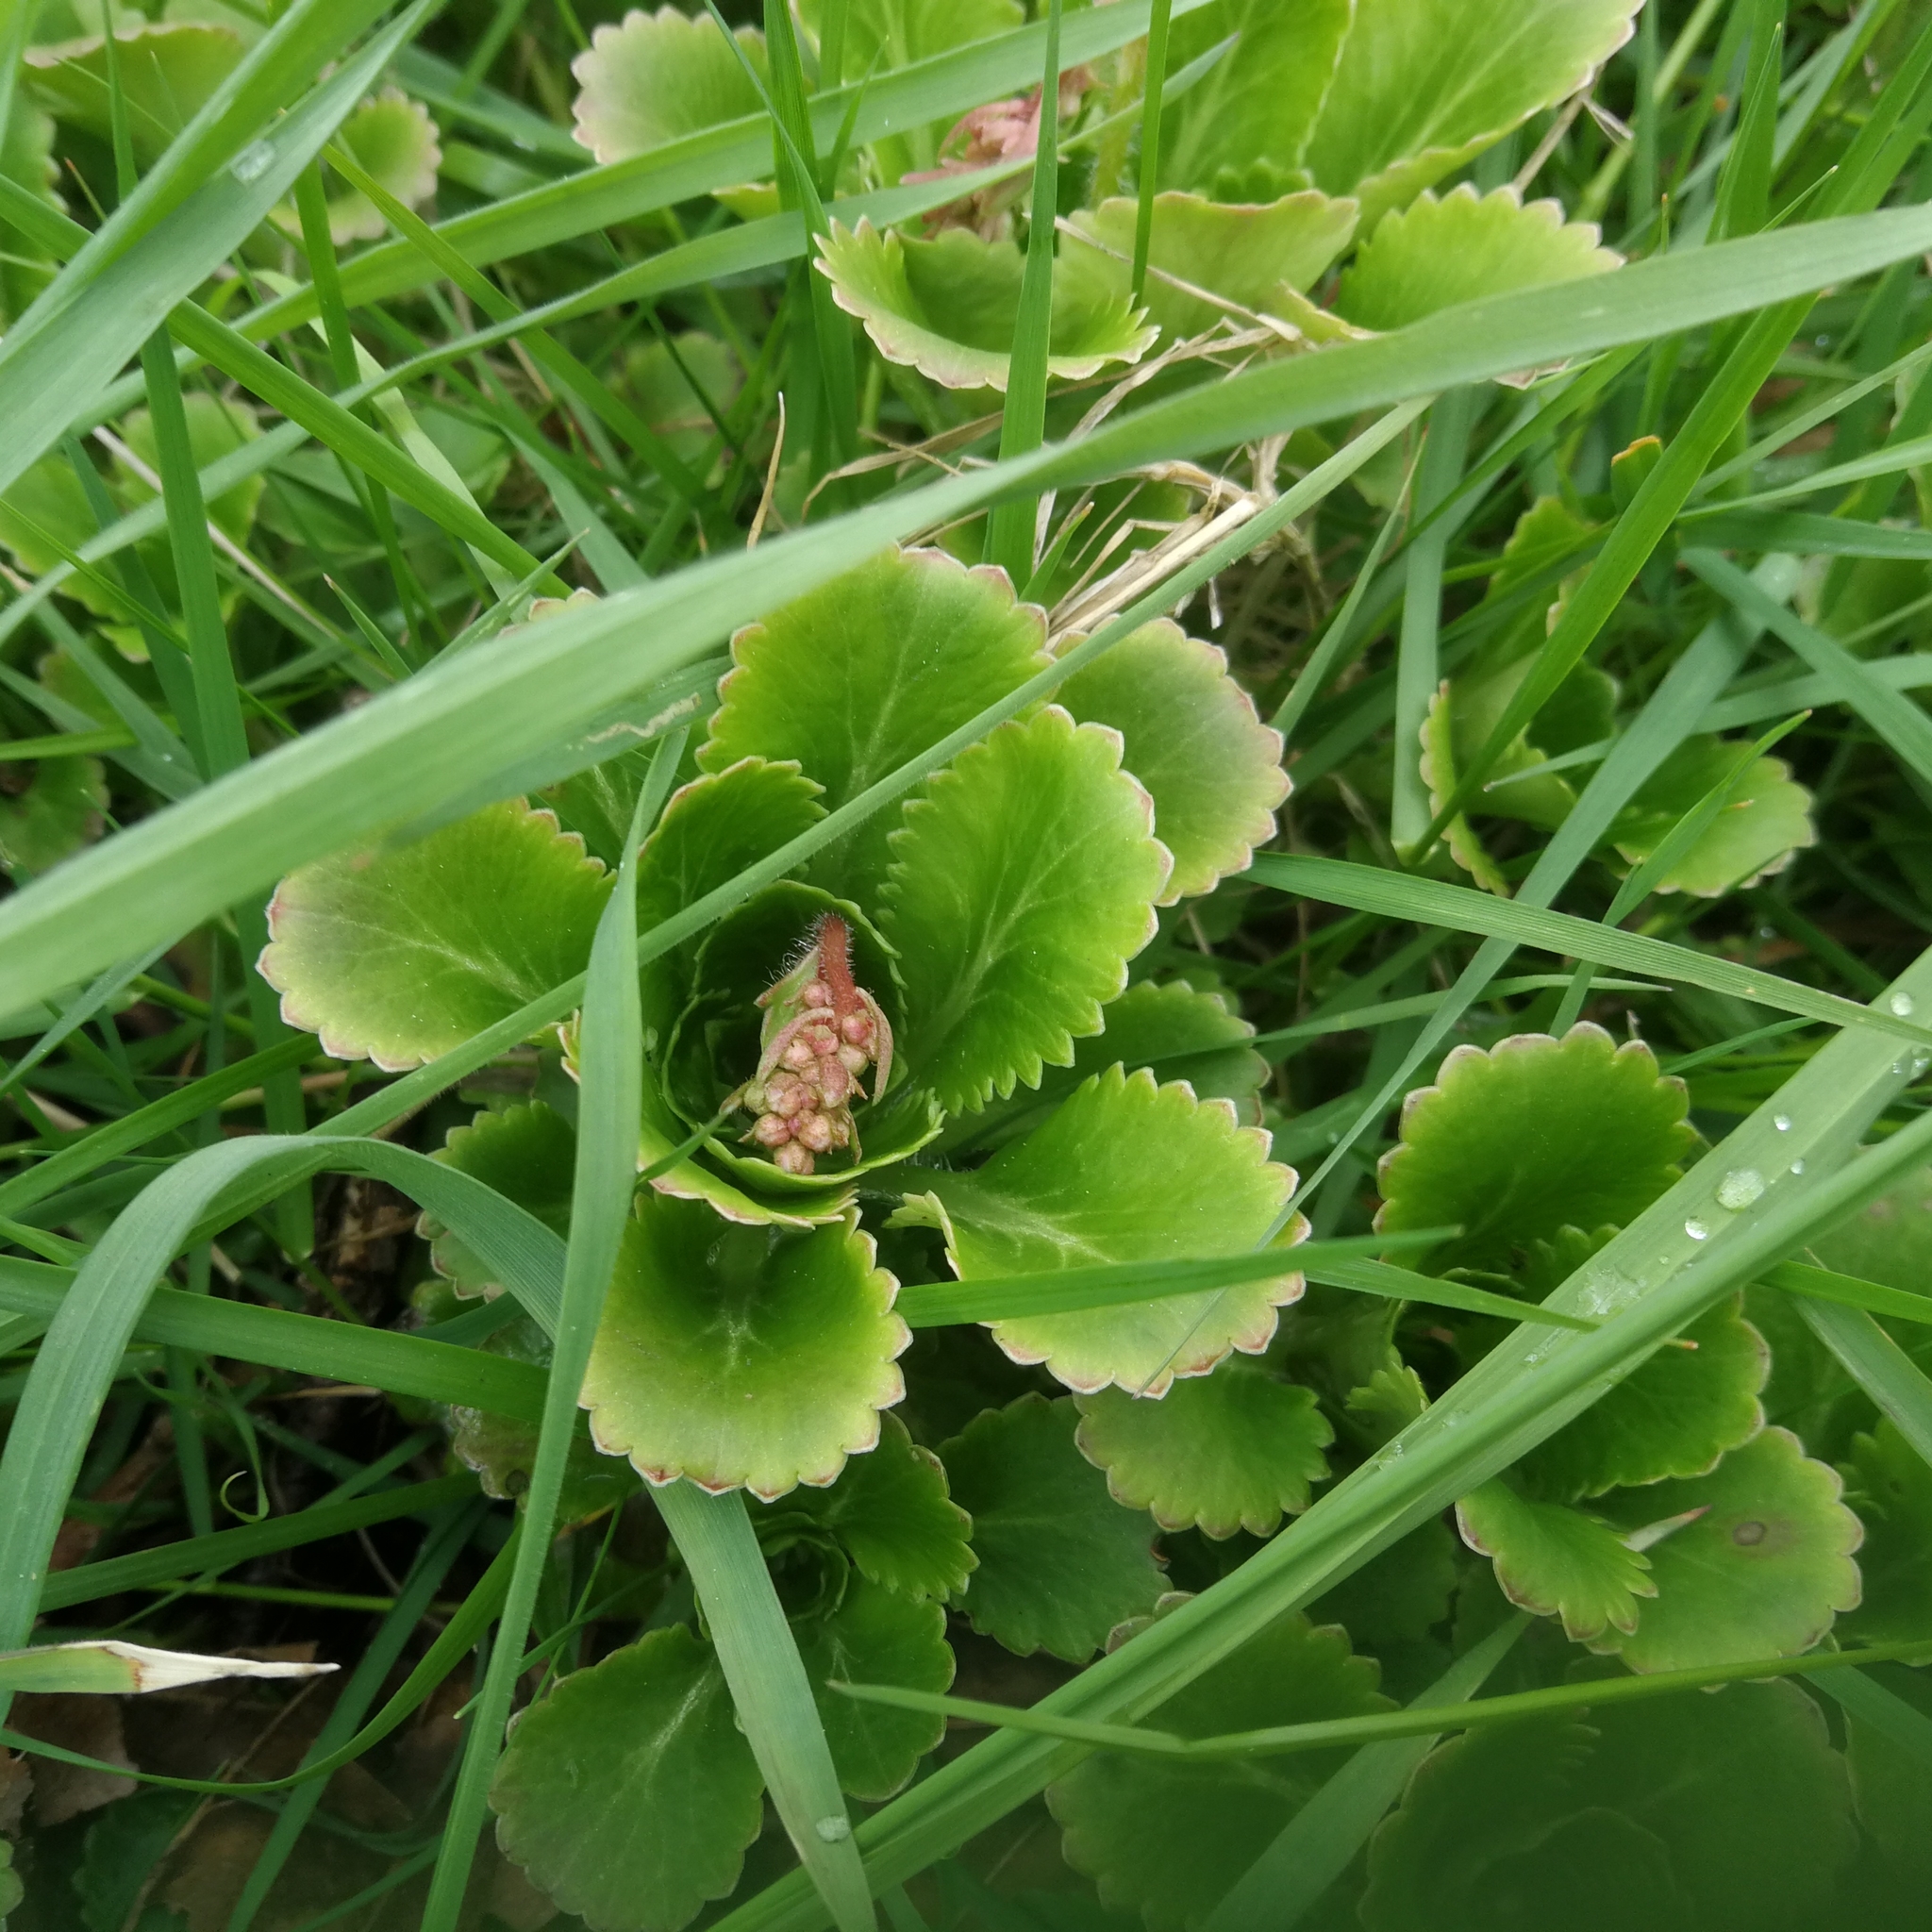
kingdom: Plantae
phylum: Tracheophyta
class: Magnoliopsida
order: Saxifragales
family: Saxifragaceae
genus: Saxifraga
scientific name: Saxifraga urbium
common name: Londonpride
